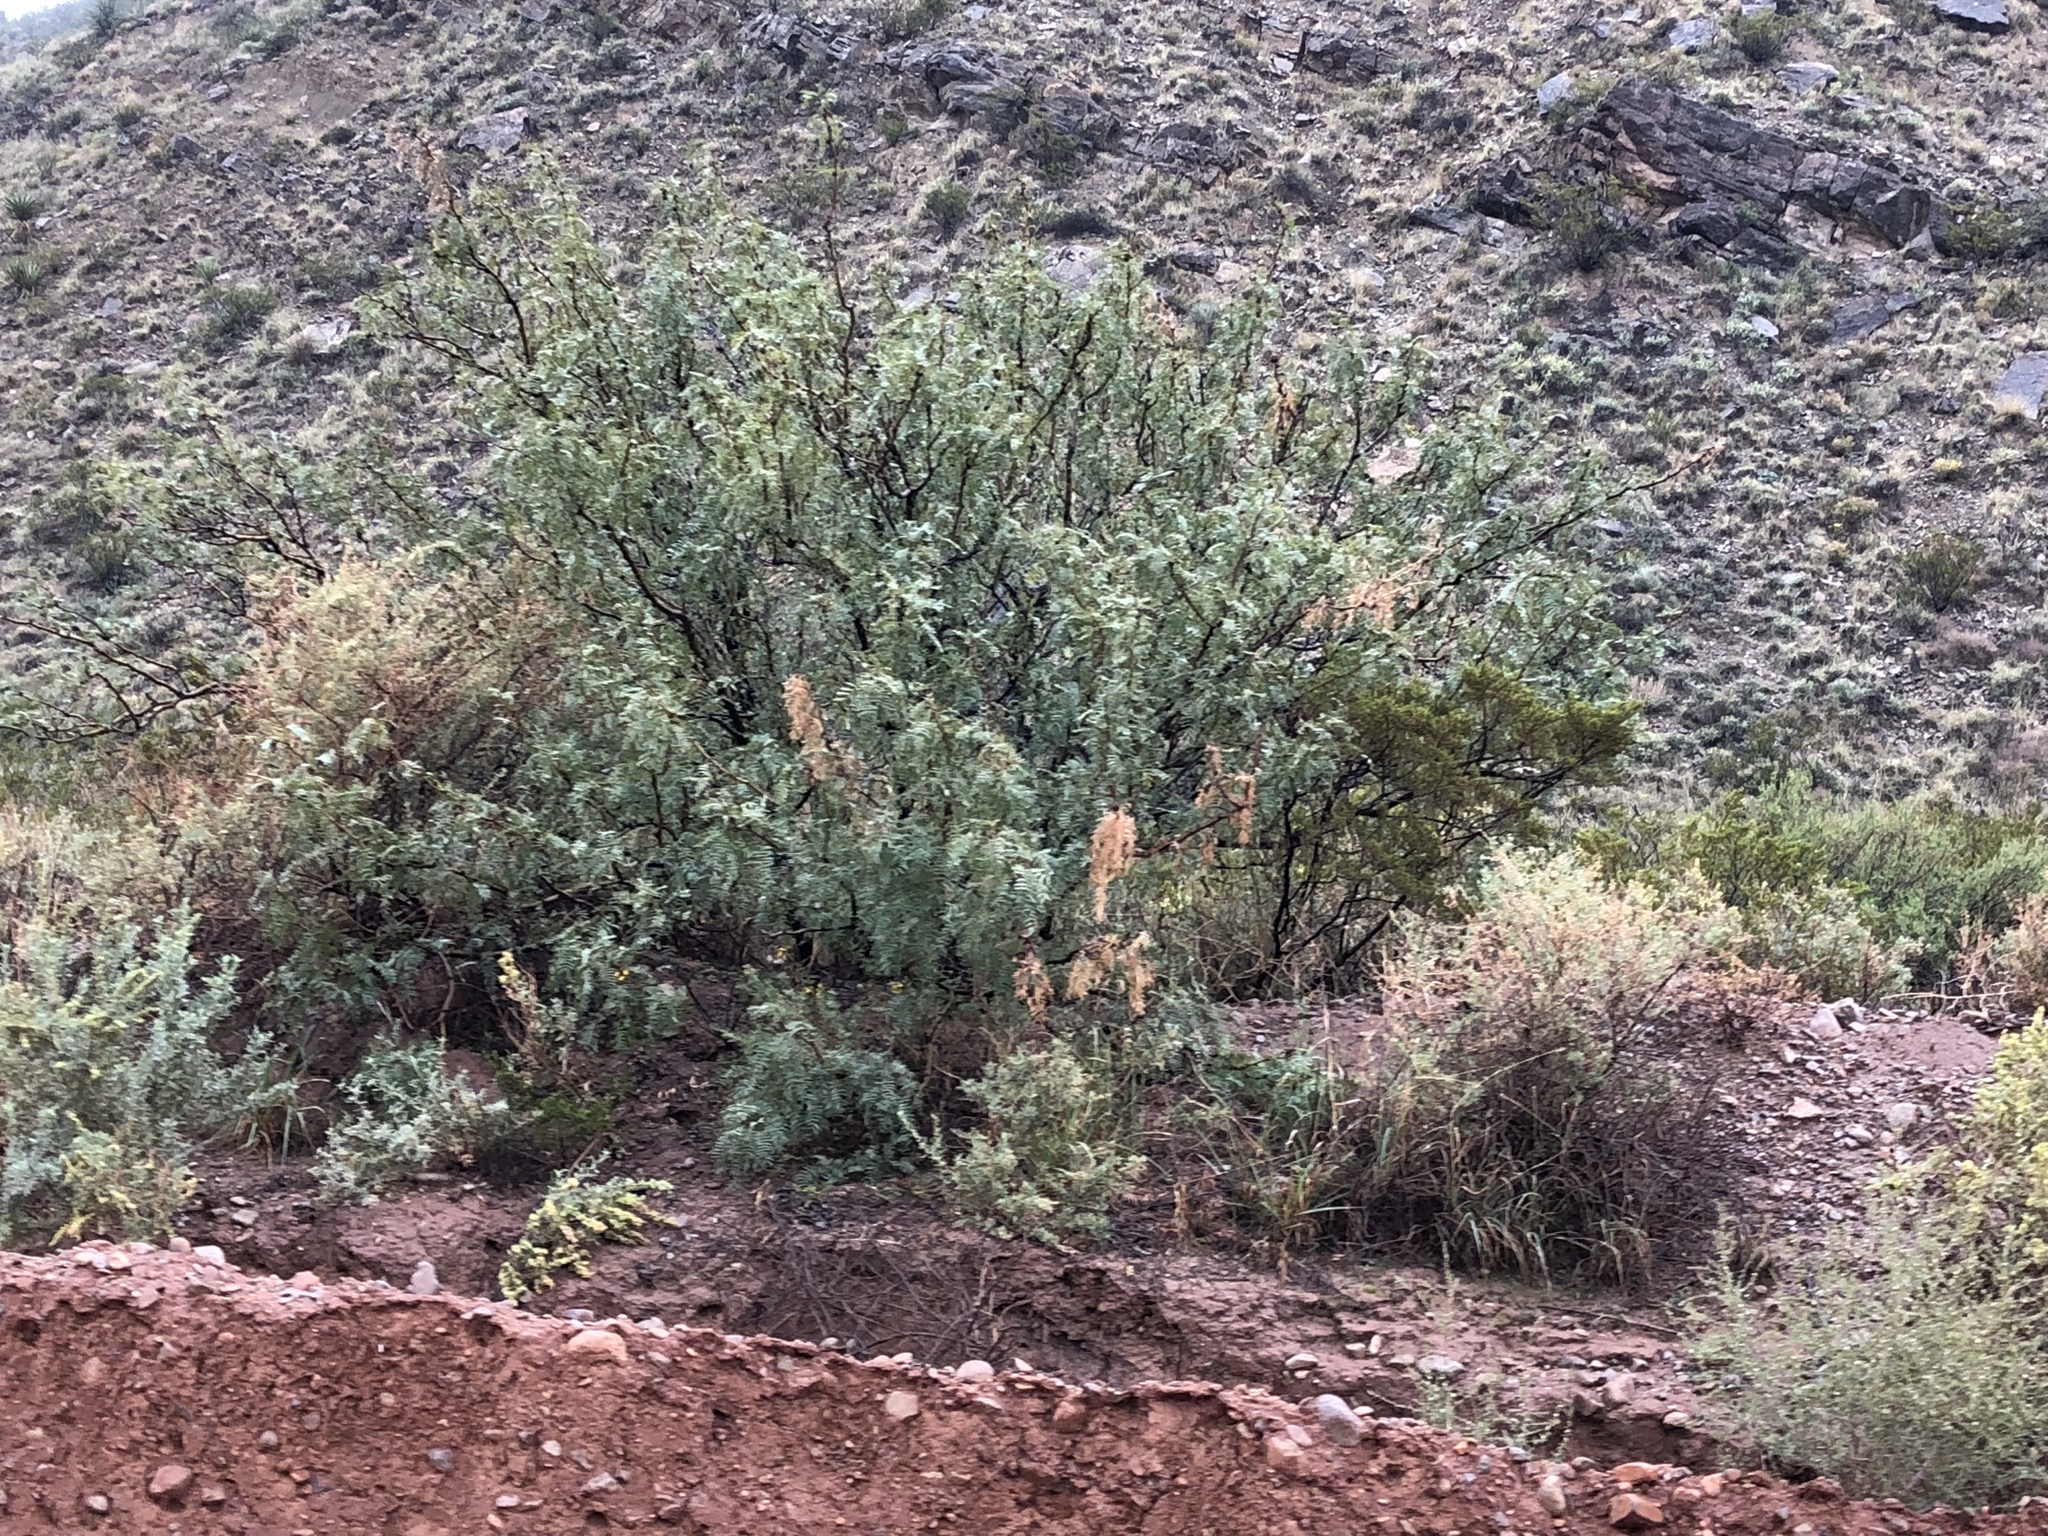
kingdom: Plantae
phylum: Tracheophyta
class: Magnoliopsida
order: Fabales
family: Fabaceae
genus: Prosopis
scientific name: Prosopis glandulosa
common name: Honey mesquite
